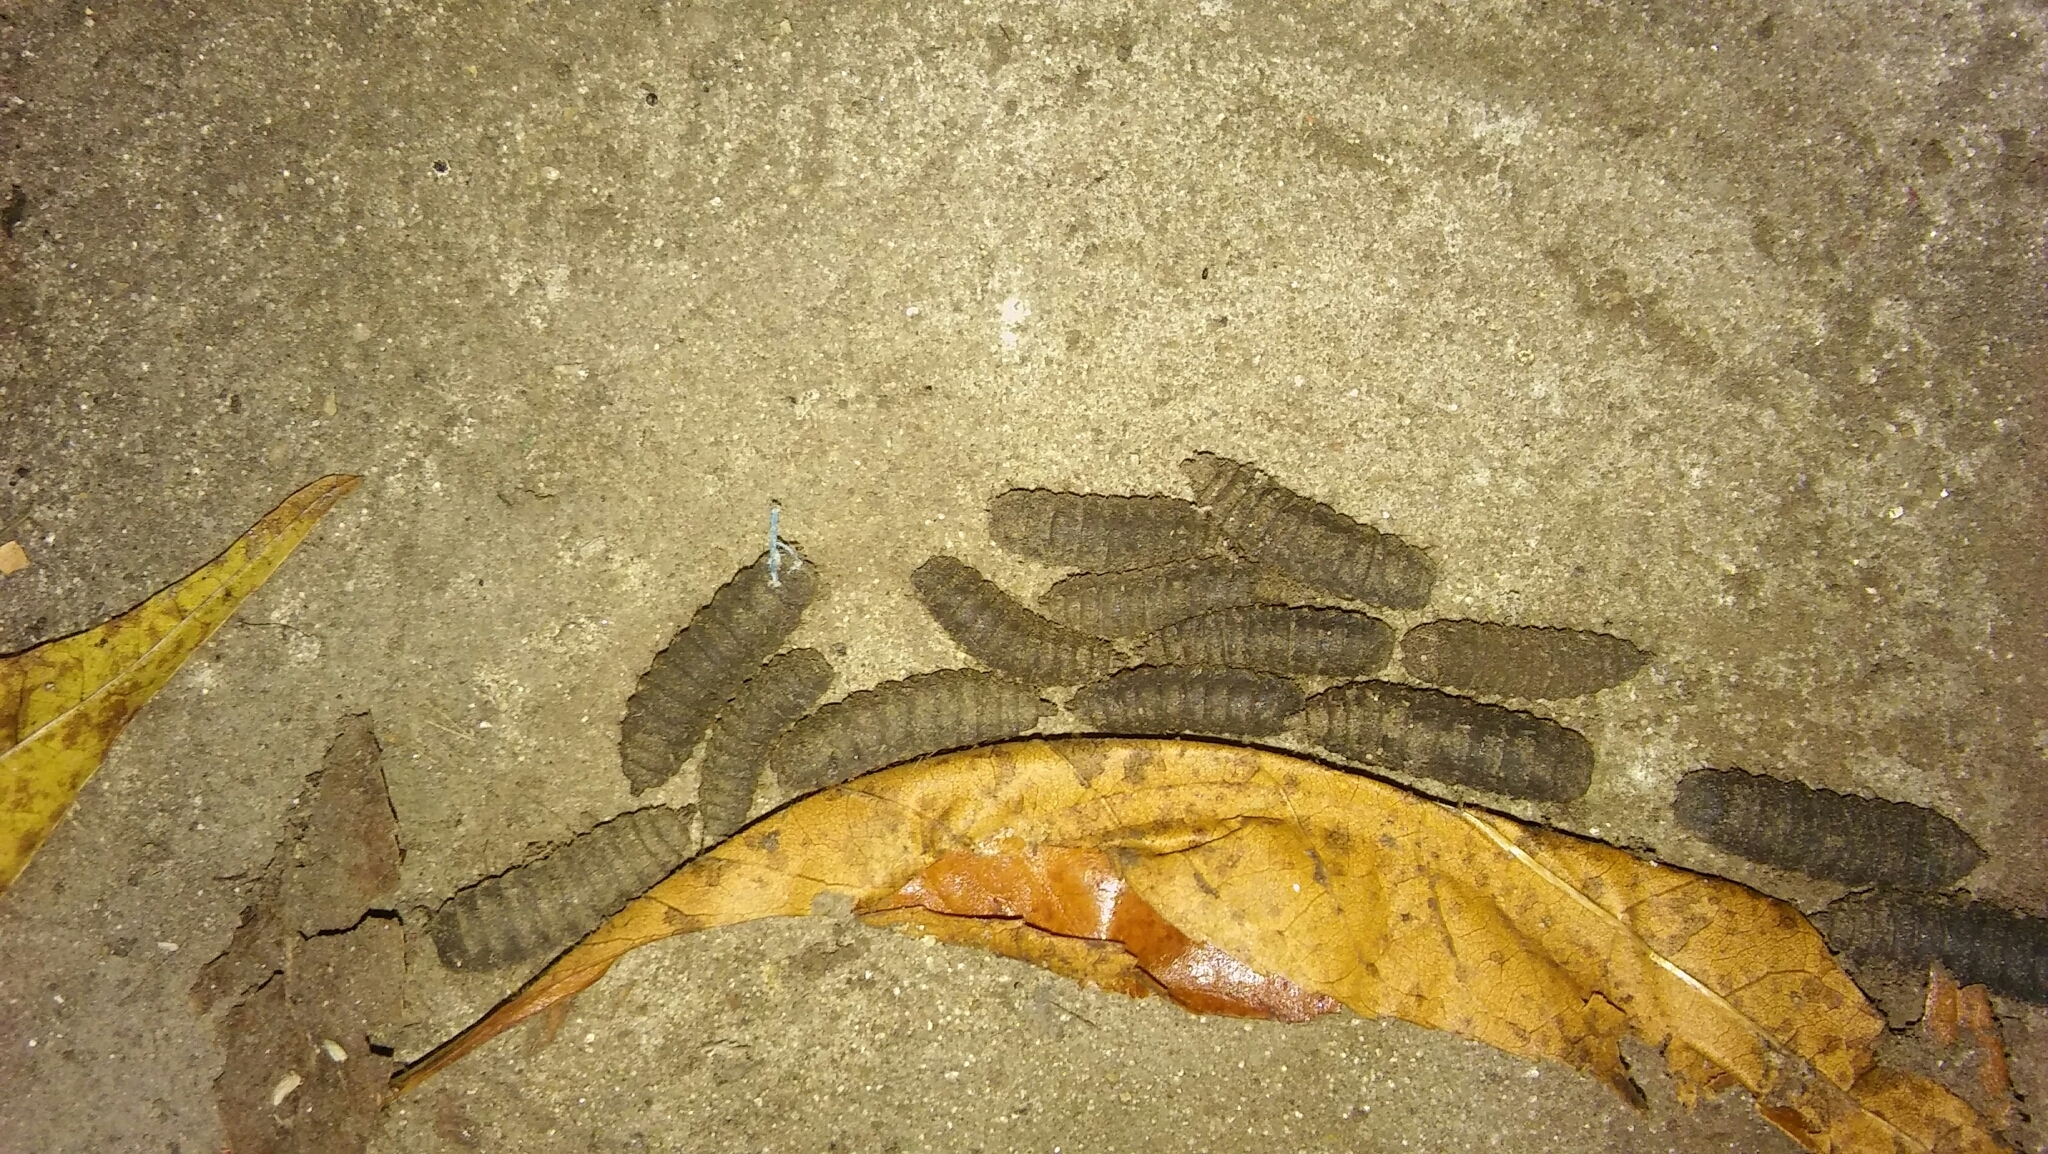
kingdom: Animalia
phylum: Arthropoda
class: Insecta
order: Diptera
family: Stratiomyidae
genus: Hermetia
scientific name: Hermetia illucens
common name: Black soldier fly
